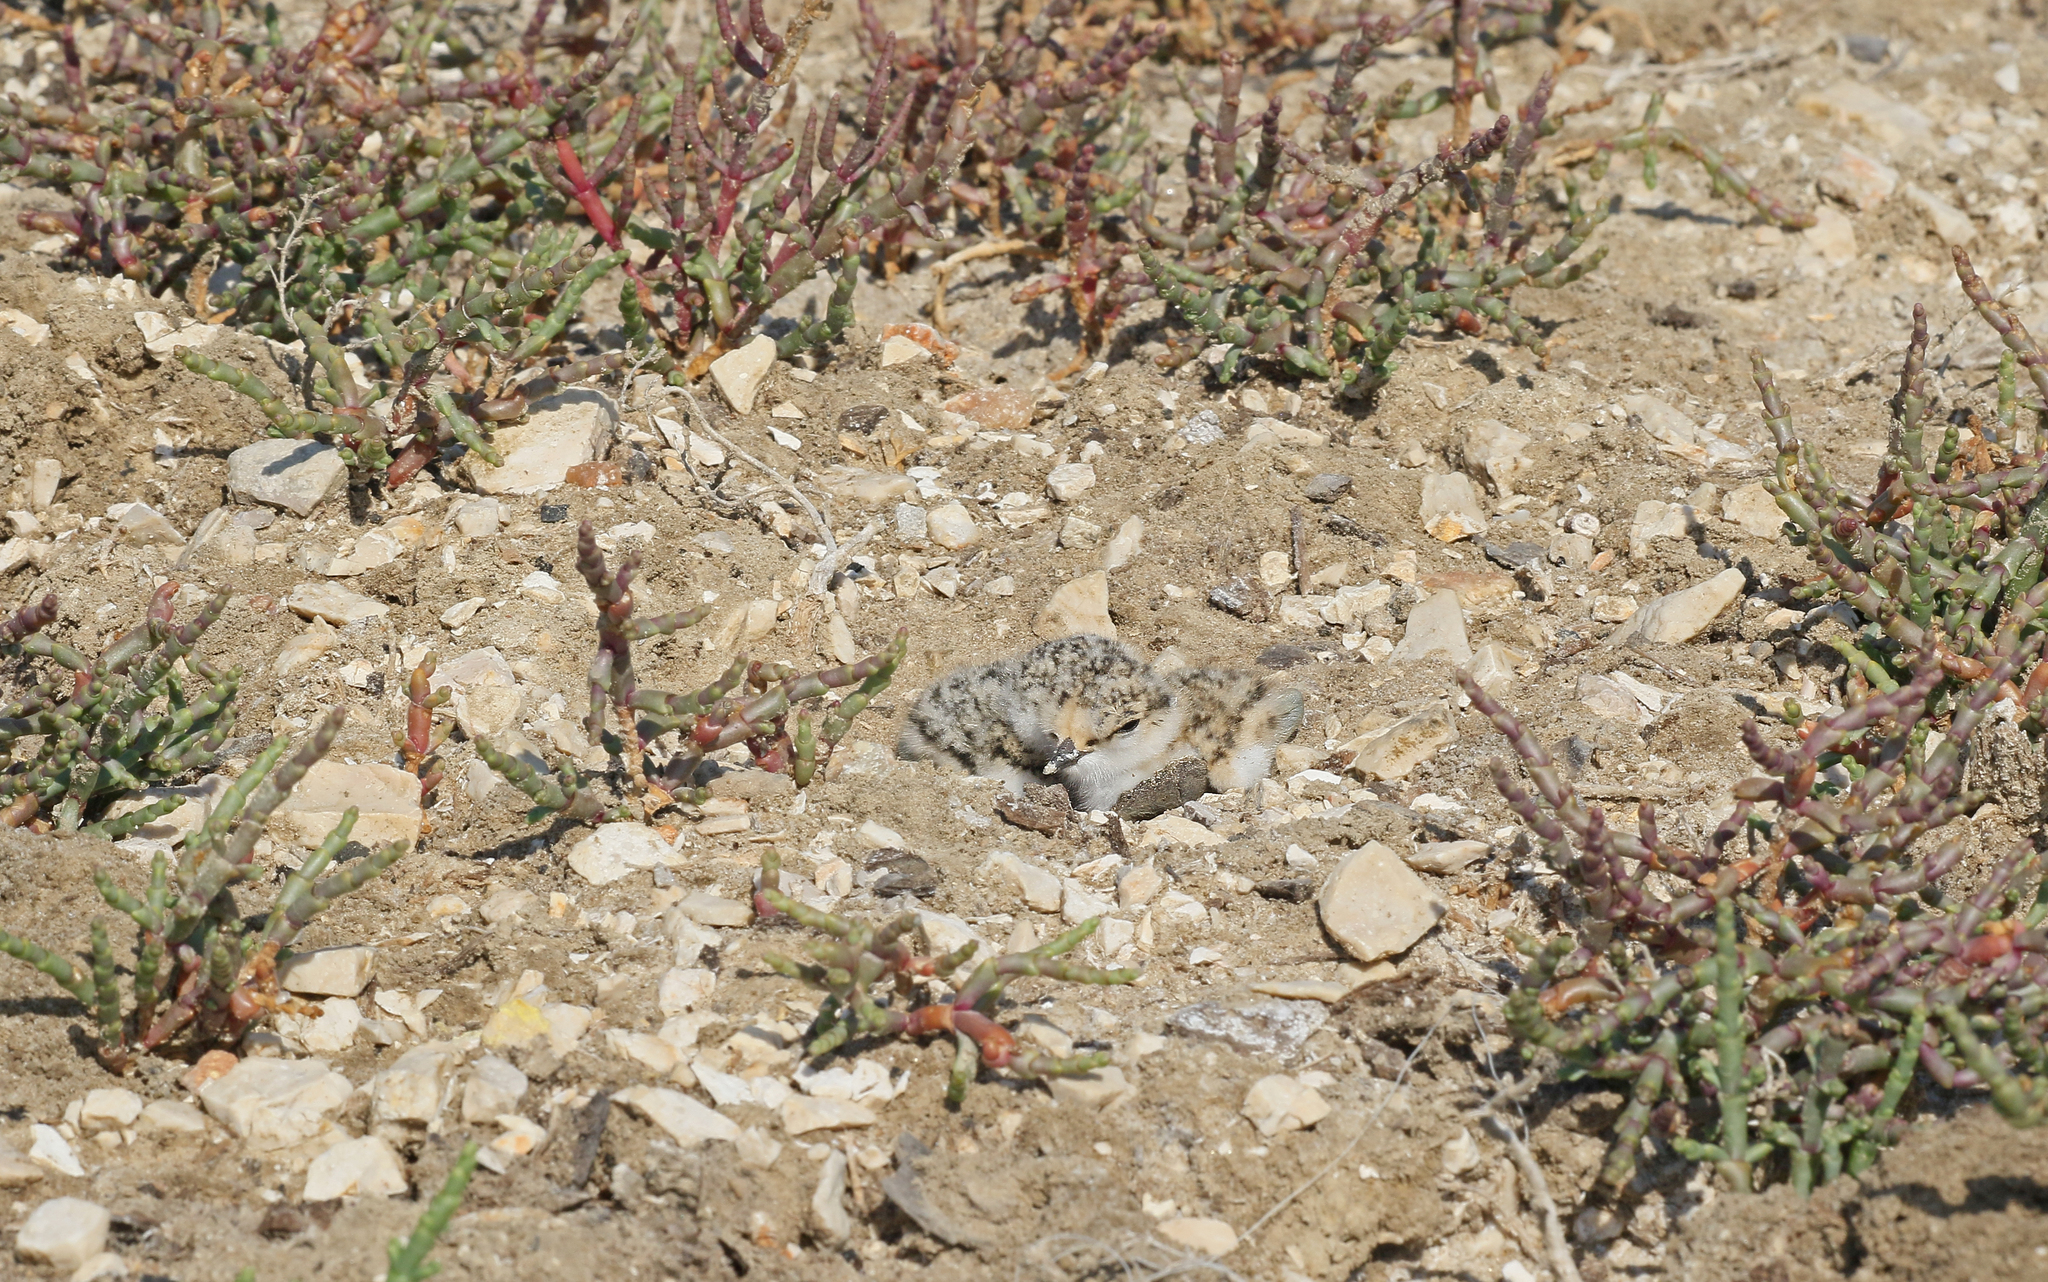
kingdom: Animalia
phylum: Chordata
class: Aves
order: Charadriiformes
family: Charadriidae
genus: Charadrius
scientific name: Charadrius alexandrinus
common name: Kentish plover
